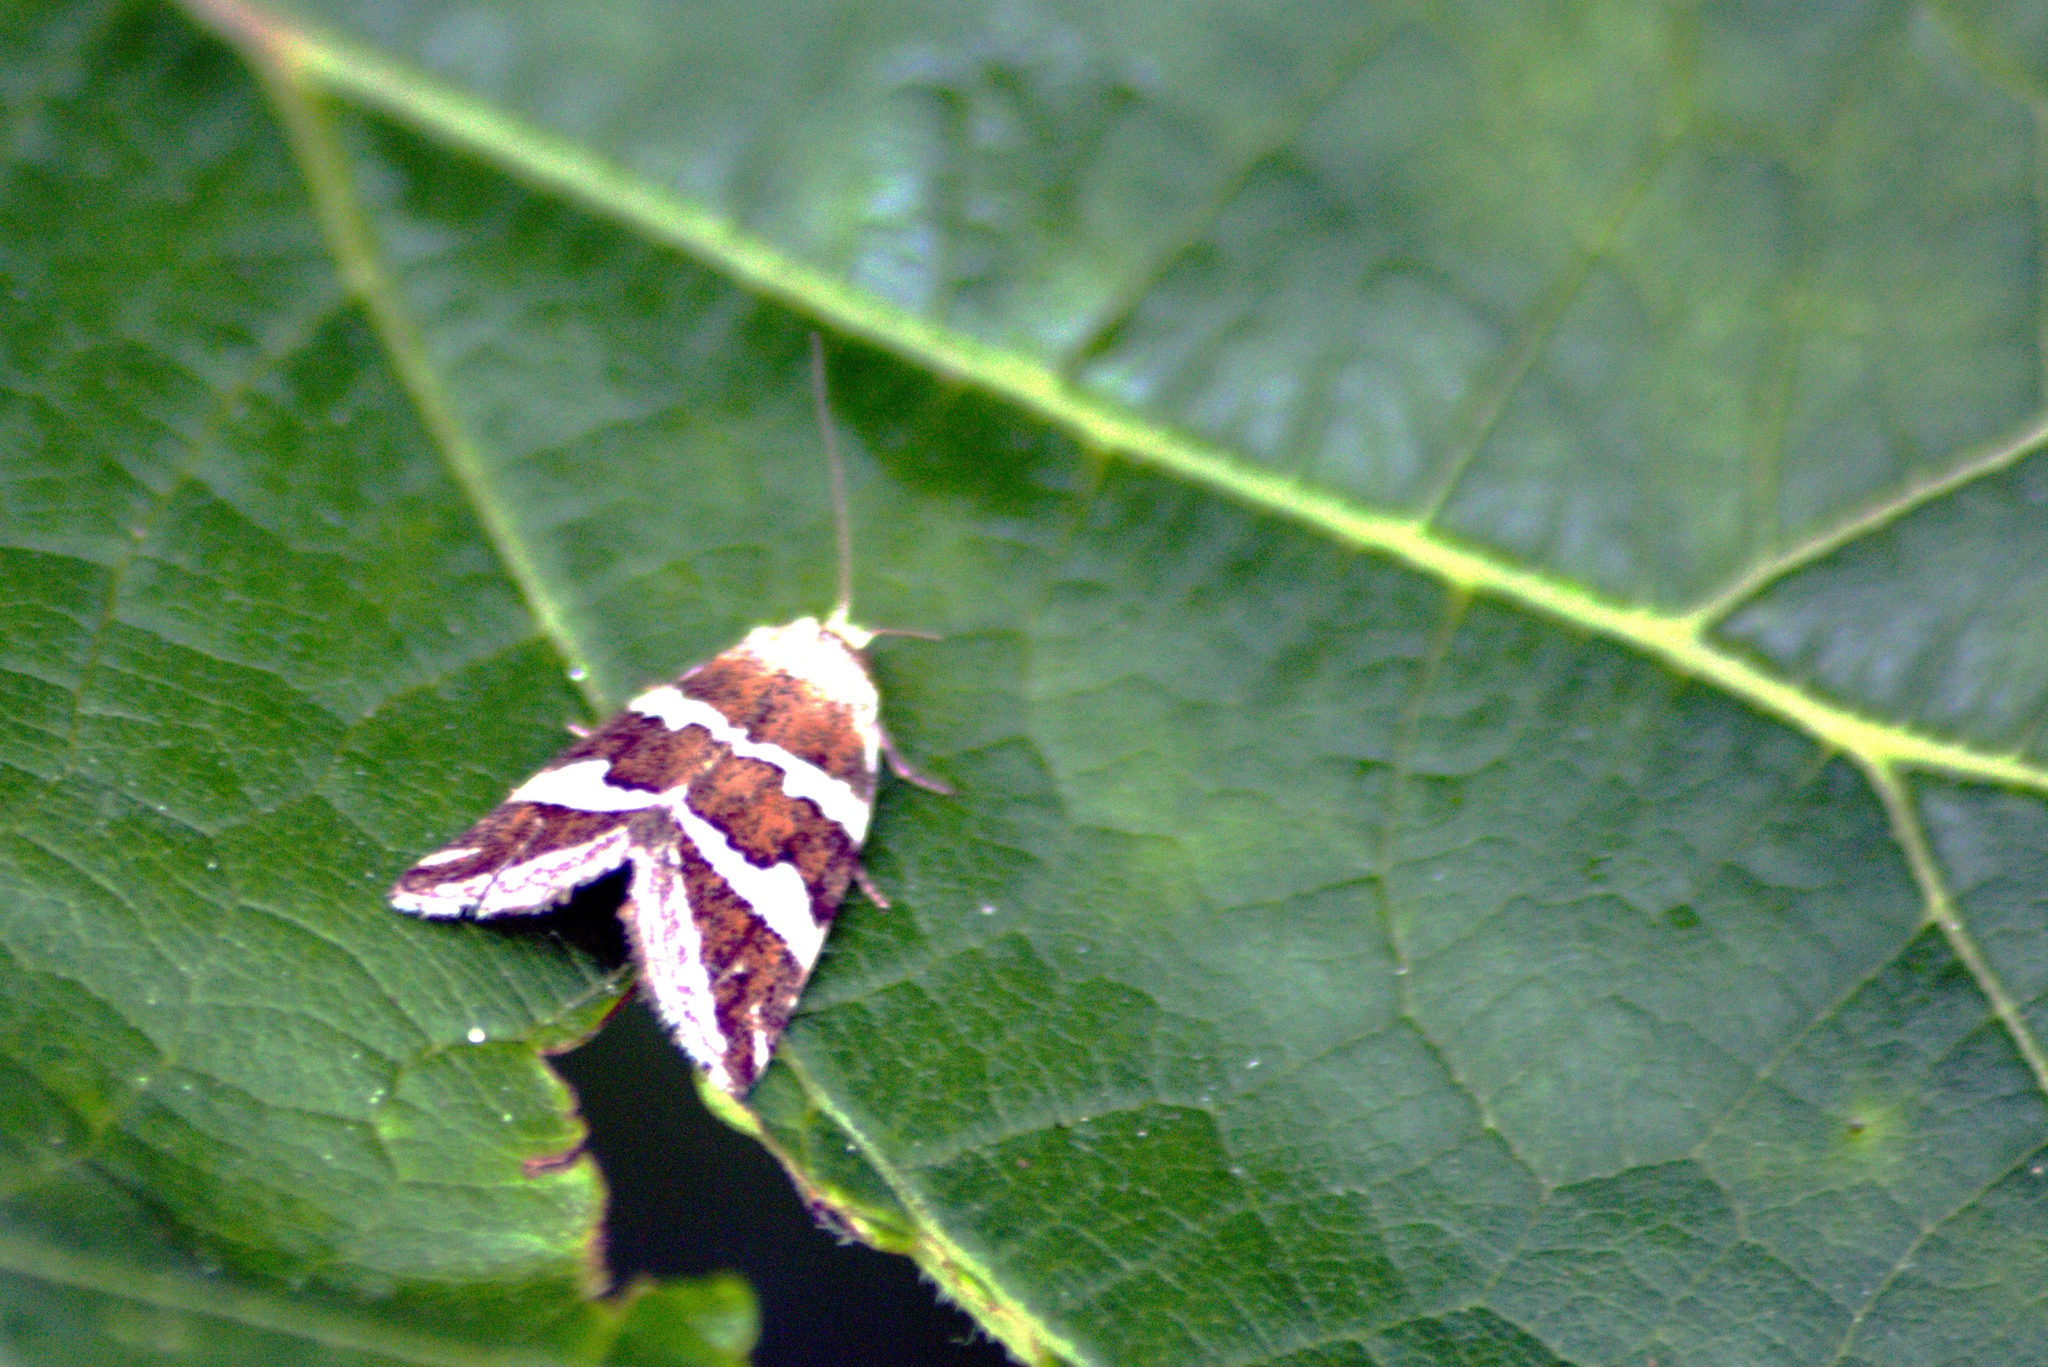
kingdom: Animalia
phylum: Arthropoda
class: Insecta
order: Lepidoptera
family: Noctuidae
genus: Deltote
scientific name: Deltote bankiana
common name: Silver barred
